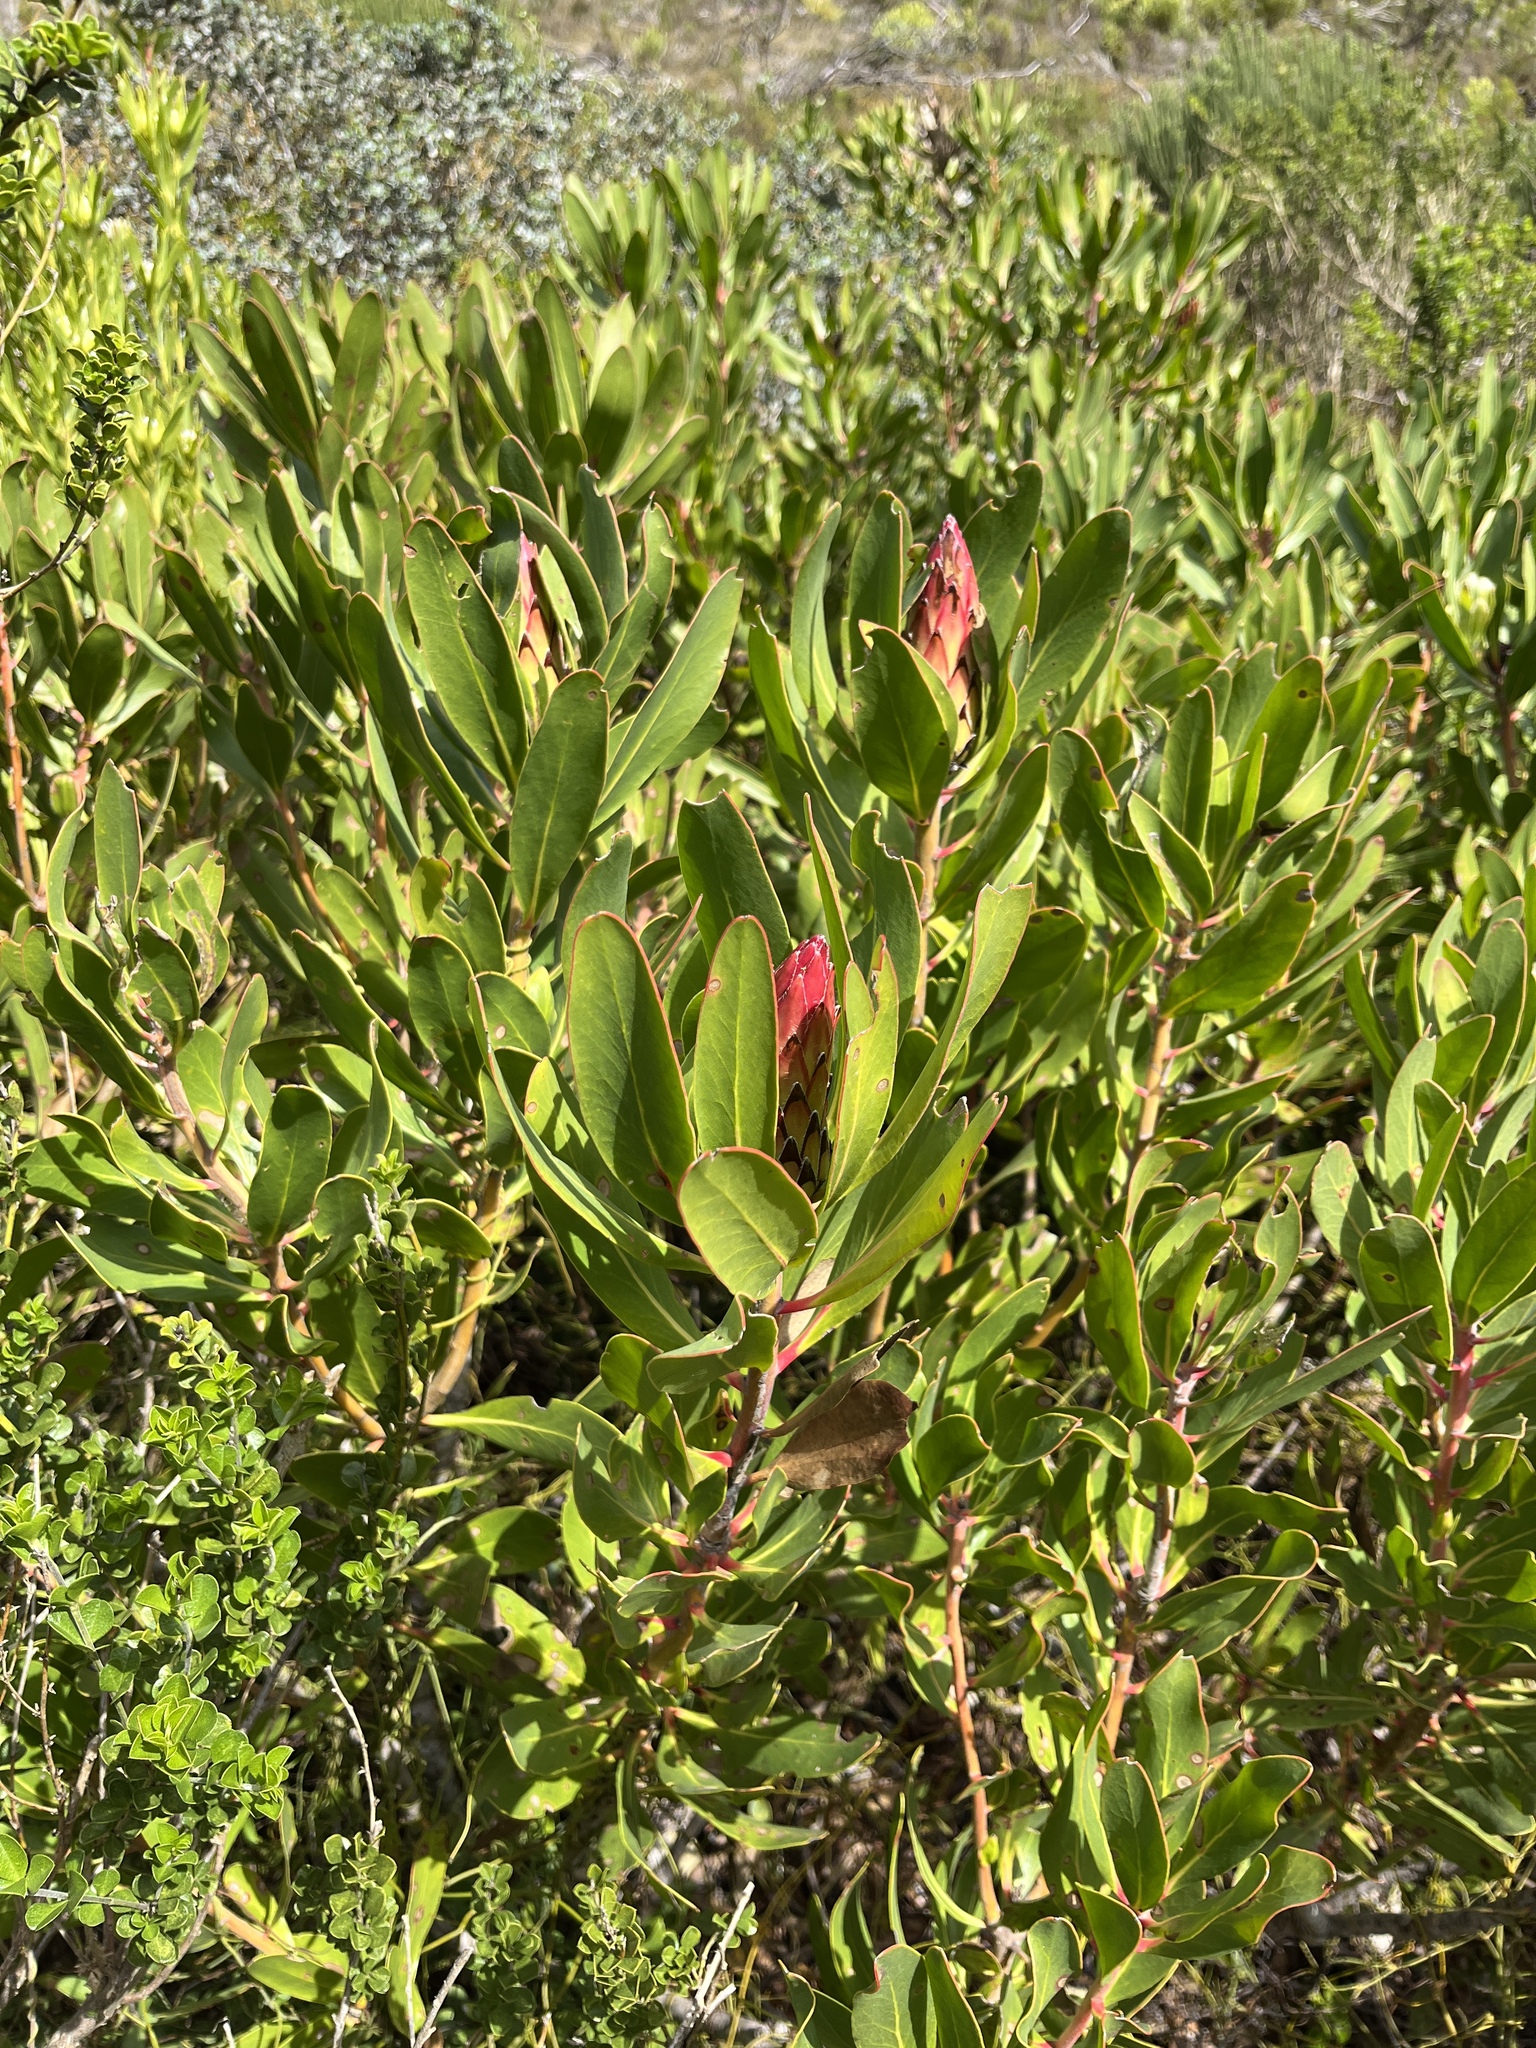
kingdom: Plantae
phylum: Tracheophyta
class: Magnoliopsida
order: Proteales
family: Proteaceae
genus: Protea
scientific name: Protea obtusifolia
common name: Bredasdorp sugarbush
